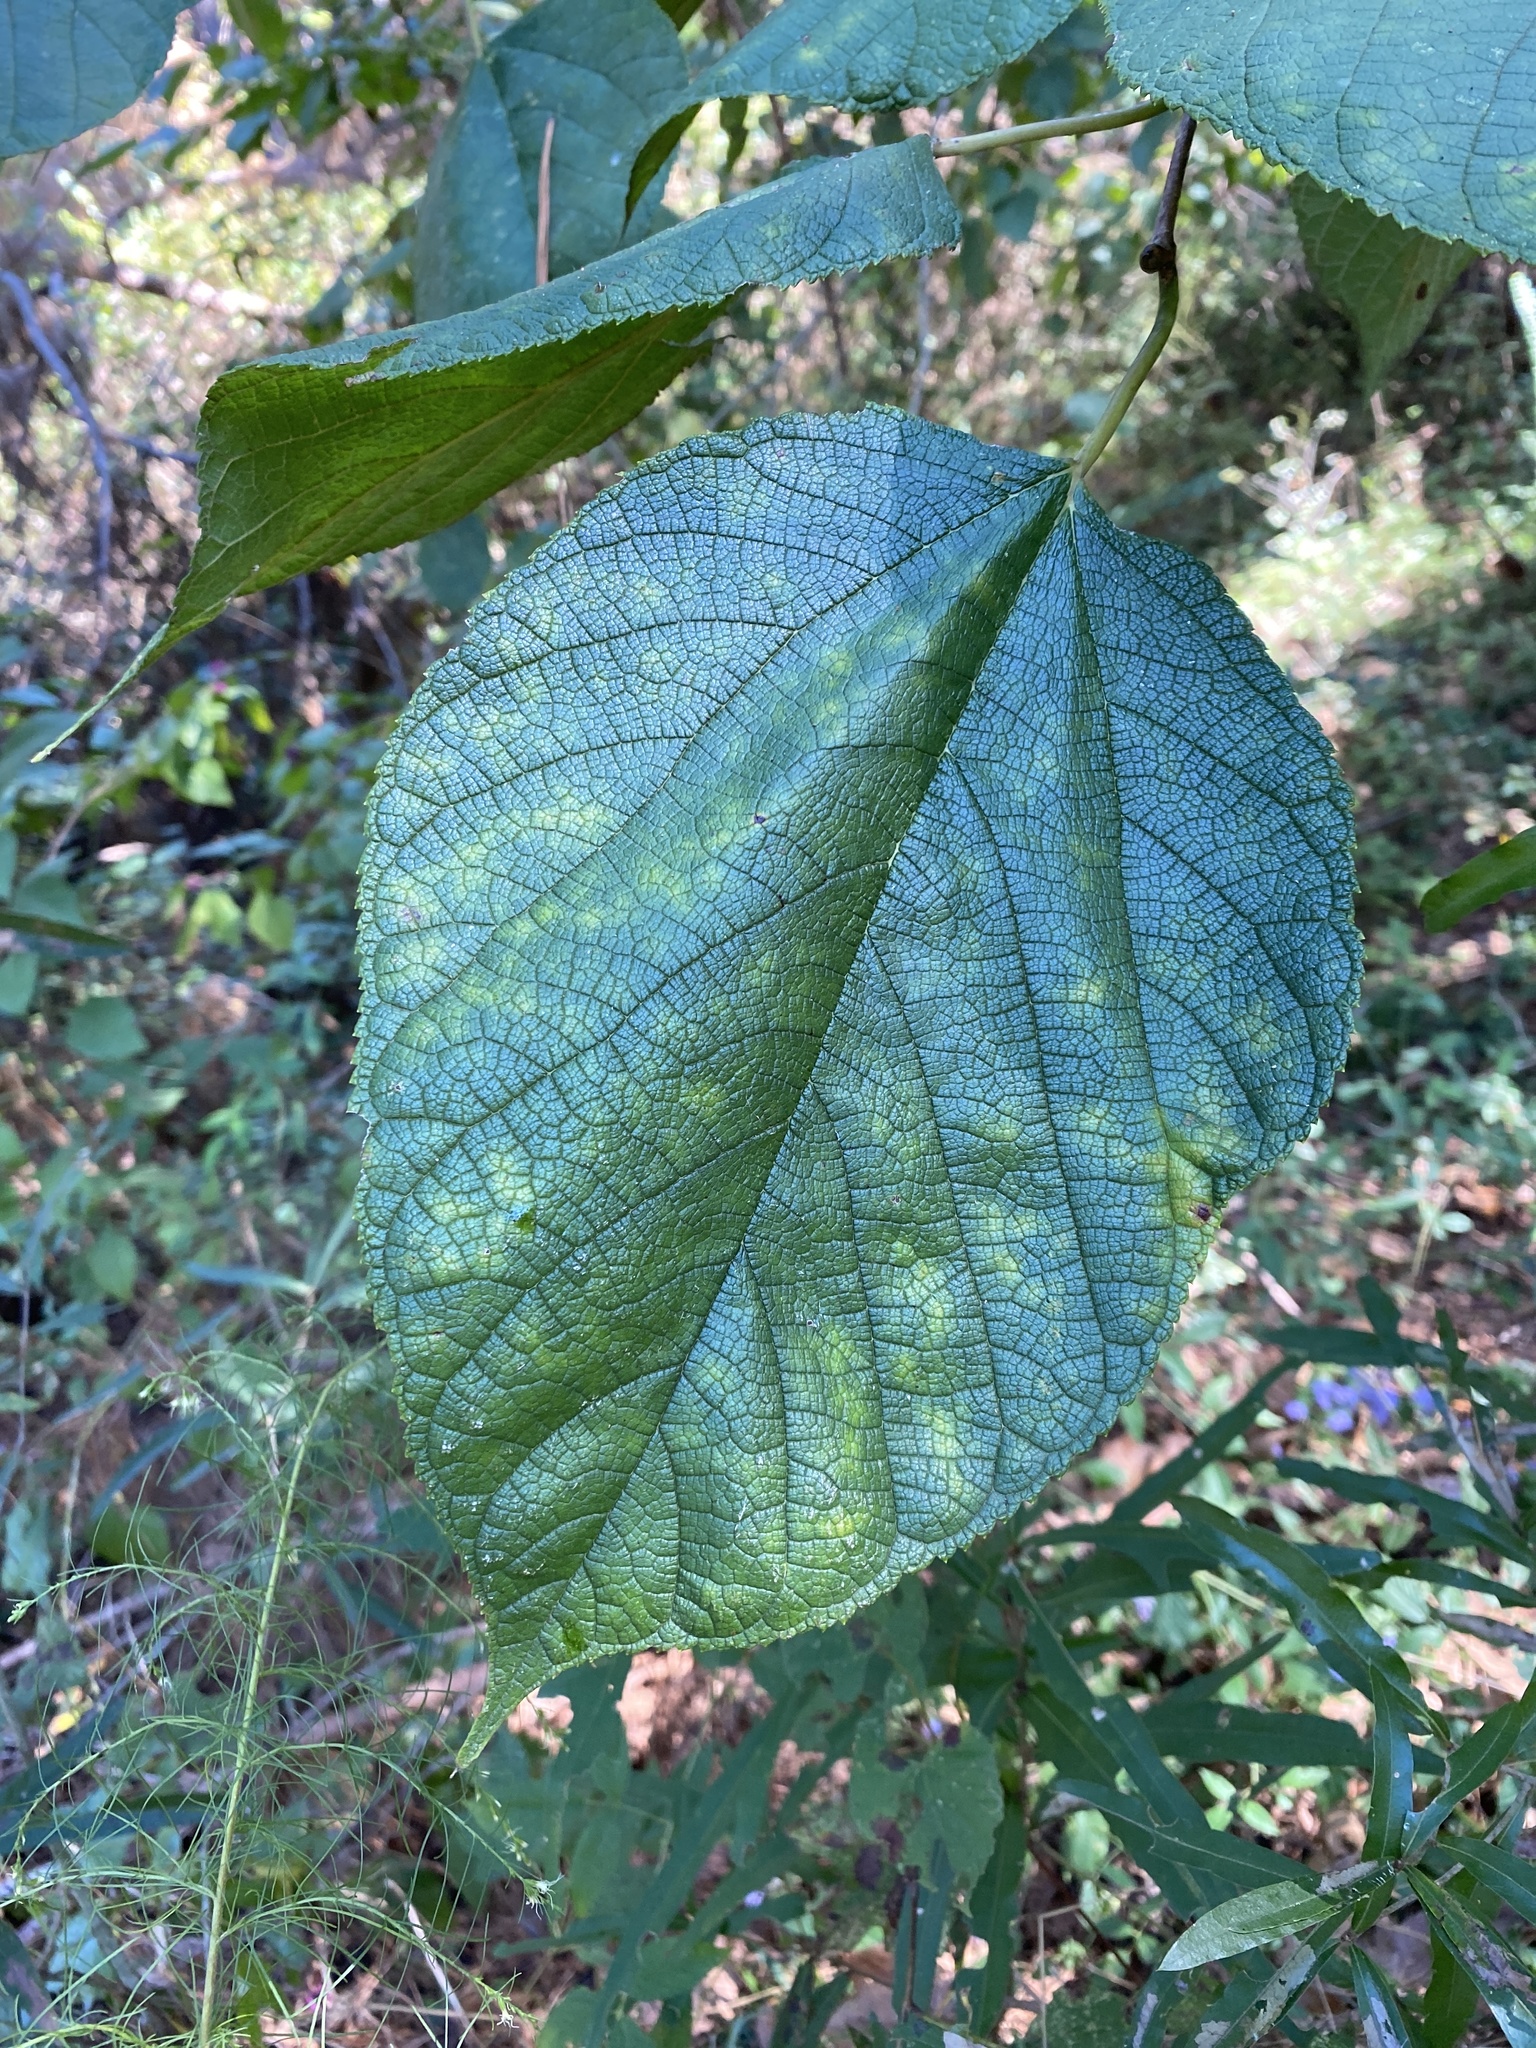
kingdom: Plantae
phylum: Tracheophyta
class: Magnoliopsida
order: Rosales
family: Moraceae
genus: Morus
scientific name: Morus rubra
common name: Red mulberry
